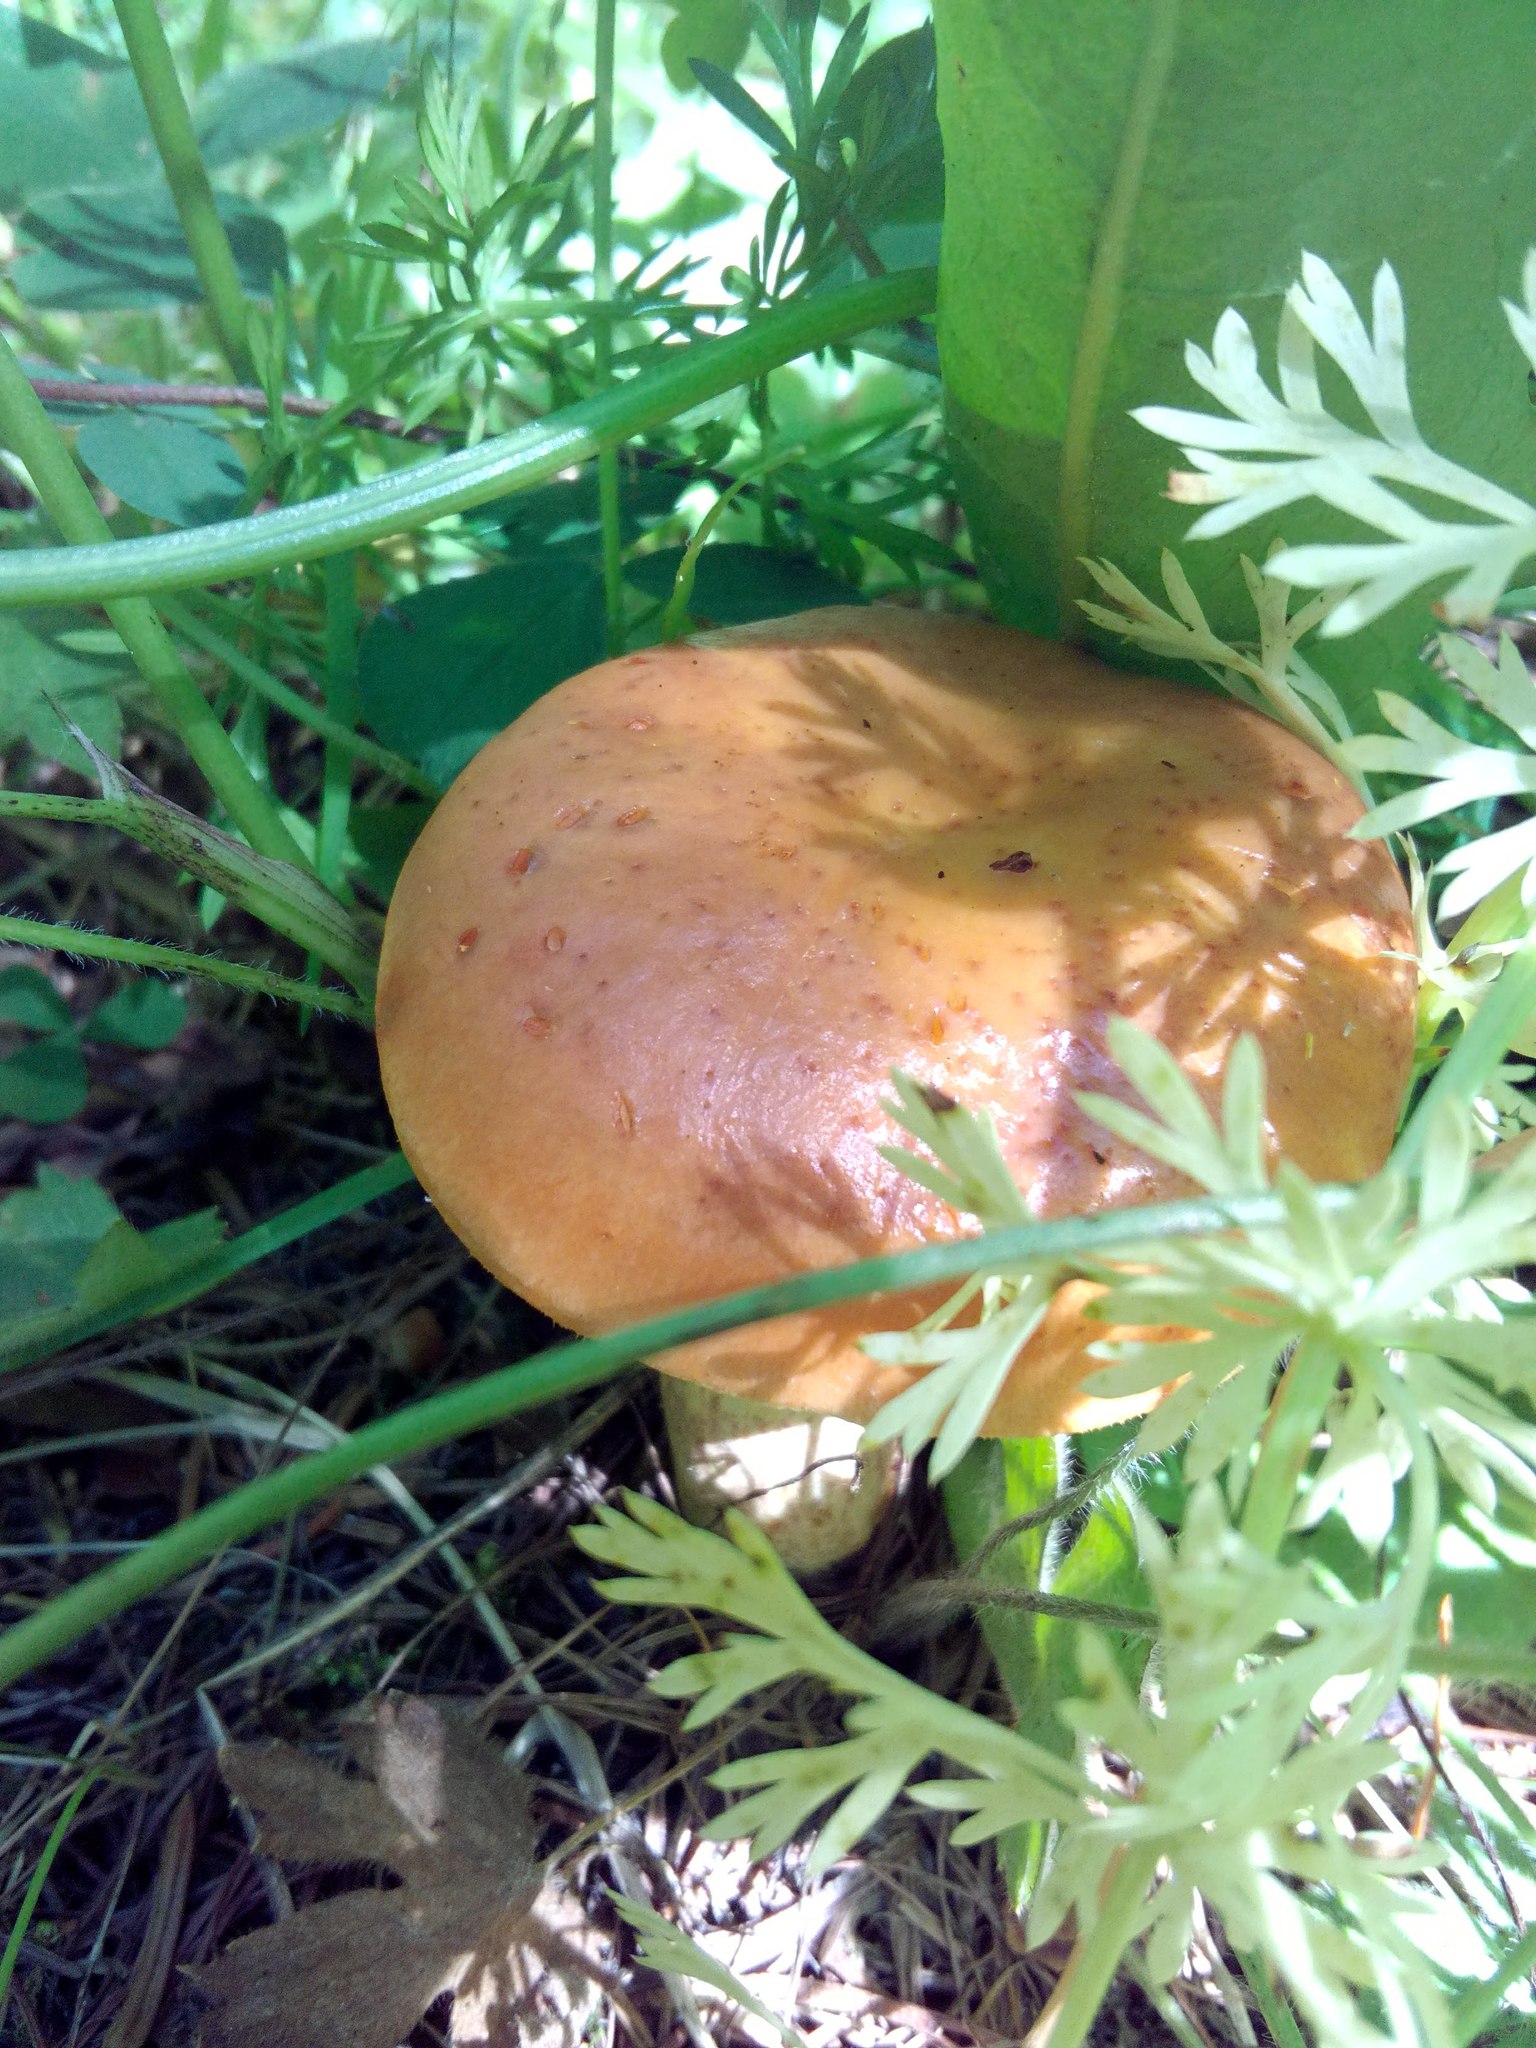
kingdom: Fungi
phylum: Basidiomycota
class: Agaricomycetes
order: Boletales
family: Suillaceae
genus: Suillus
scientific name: Suillus grevillei
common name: Larch bolete
